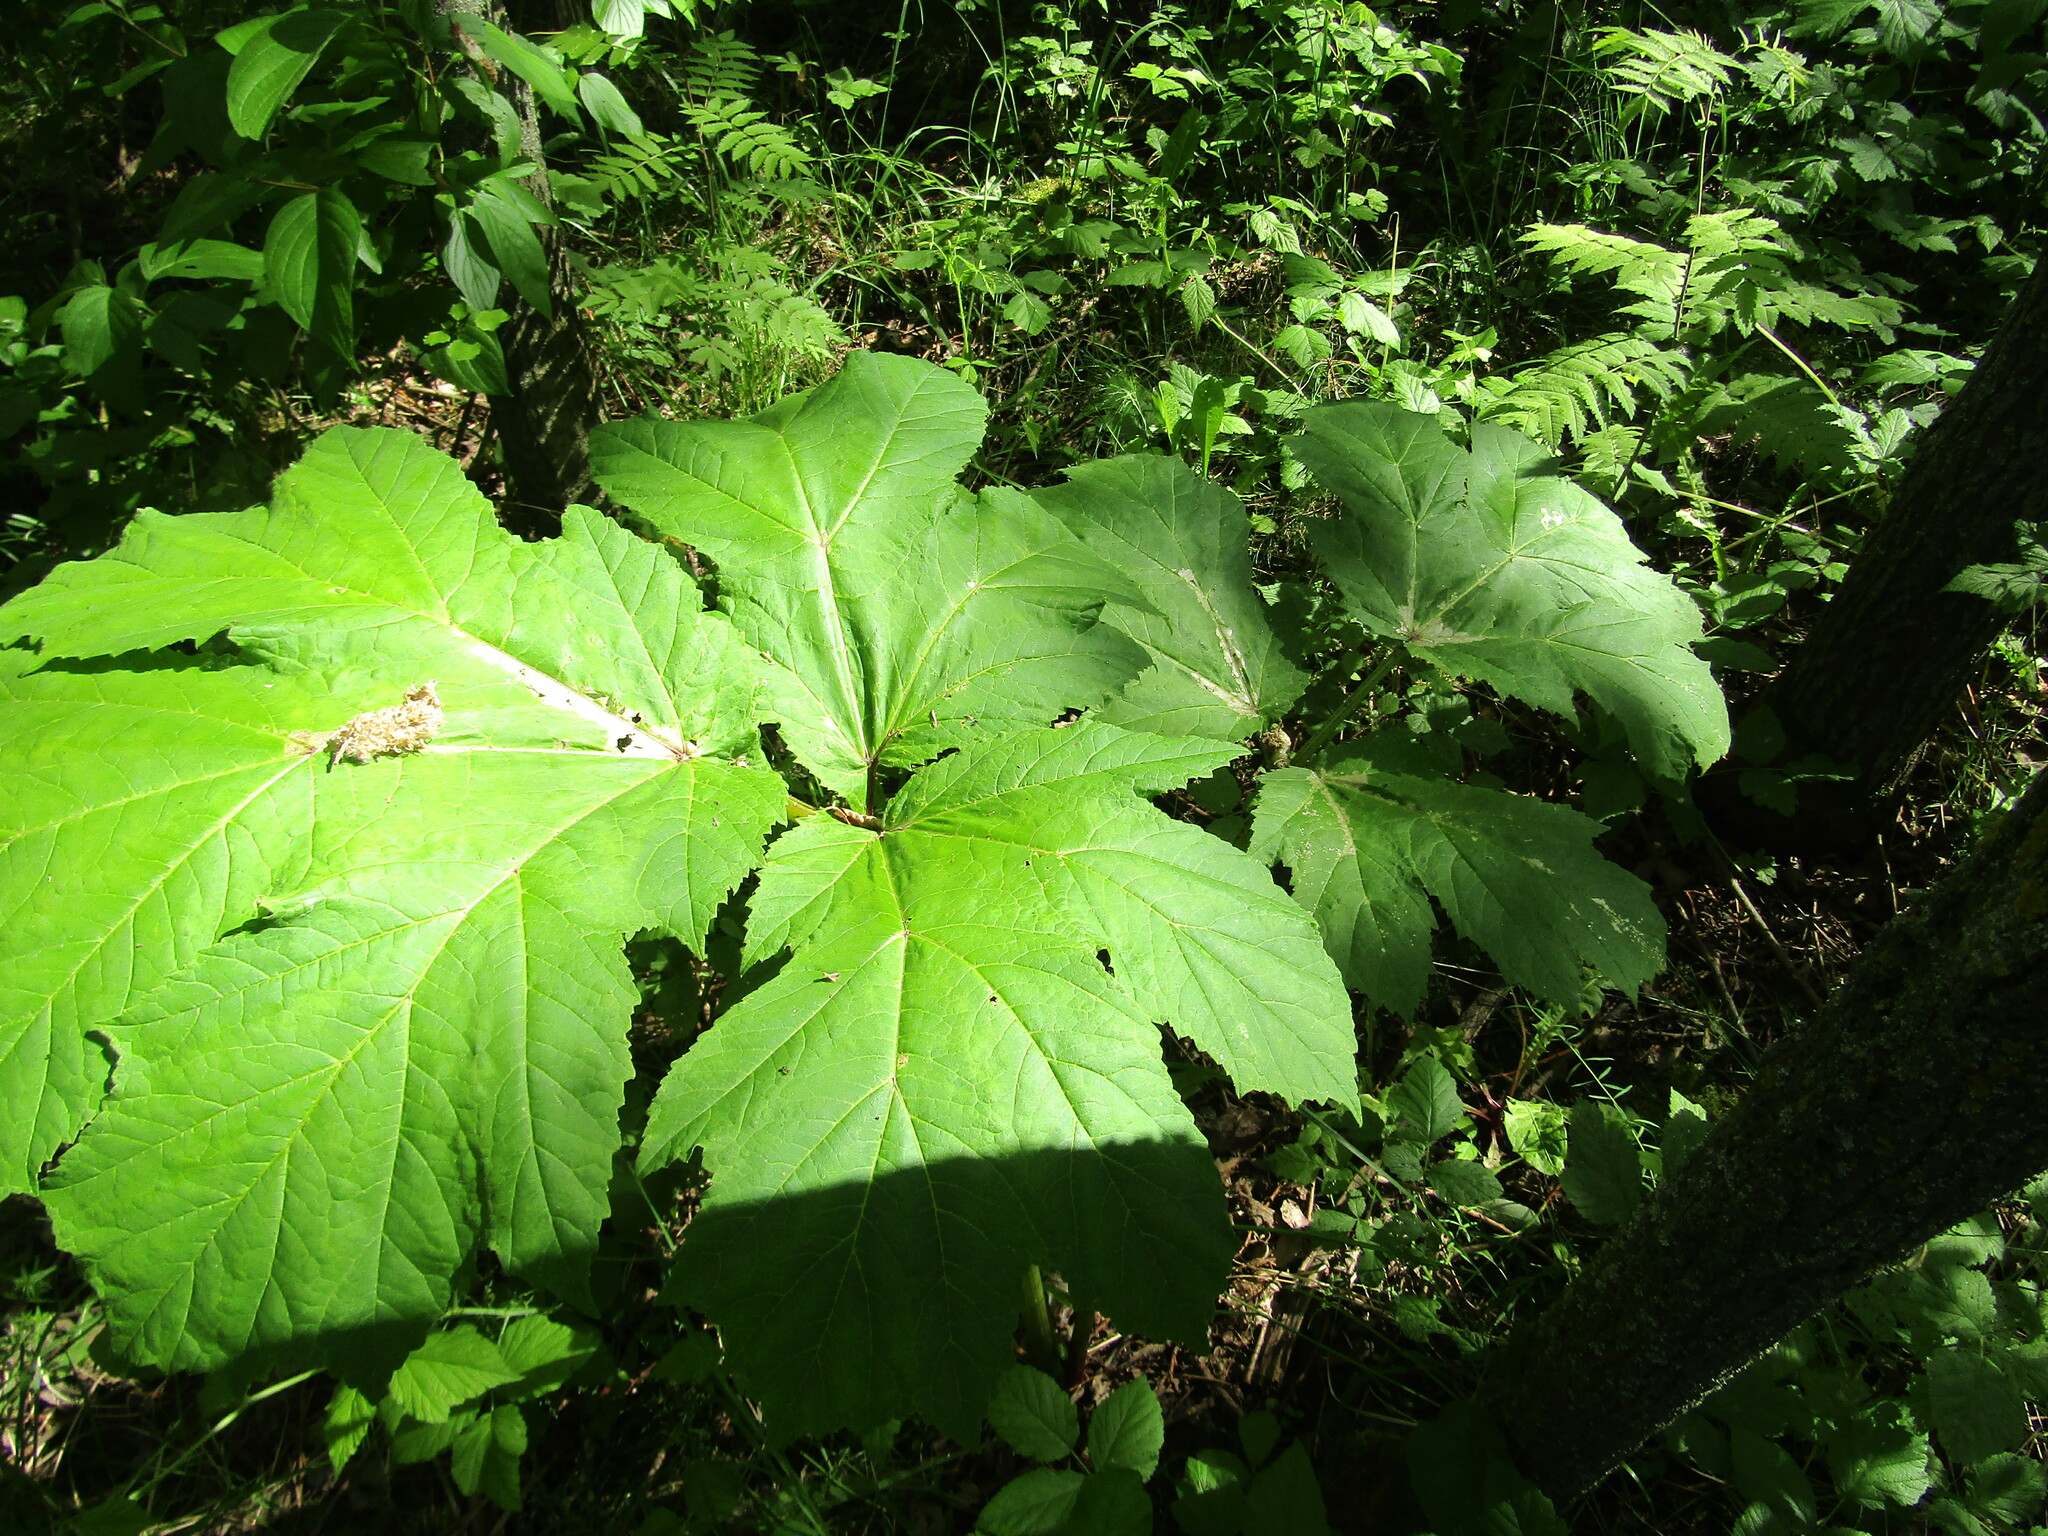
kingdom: Plantae
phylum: Tracheophyta
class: Magnoliopsida
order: Apiales
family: Apiaceae
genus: Heracleum
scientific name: Heracleum sosnowskyi
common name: Sosnowsky's hogweed
